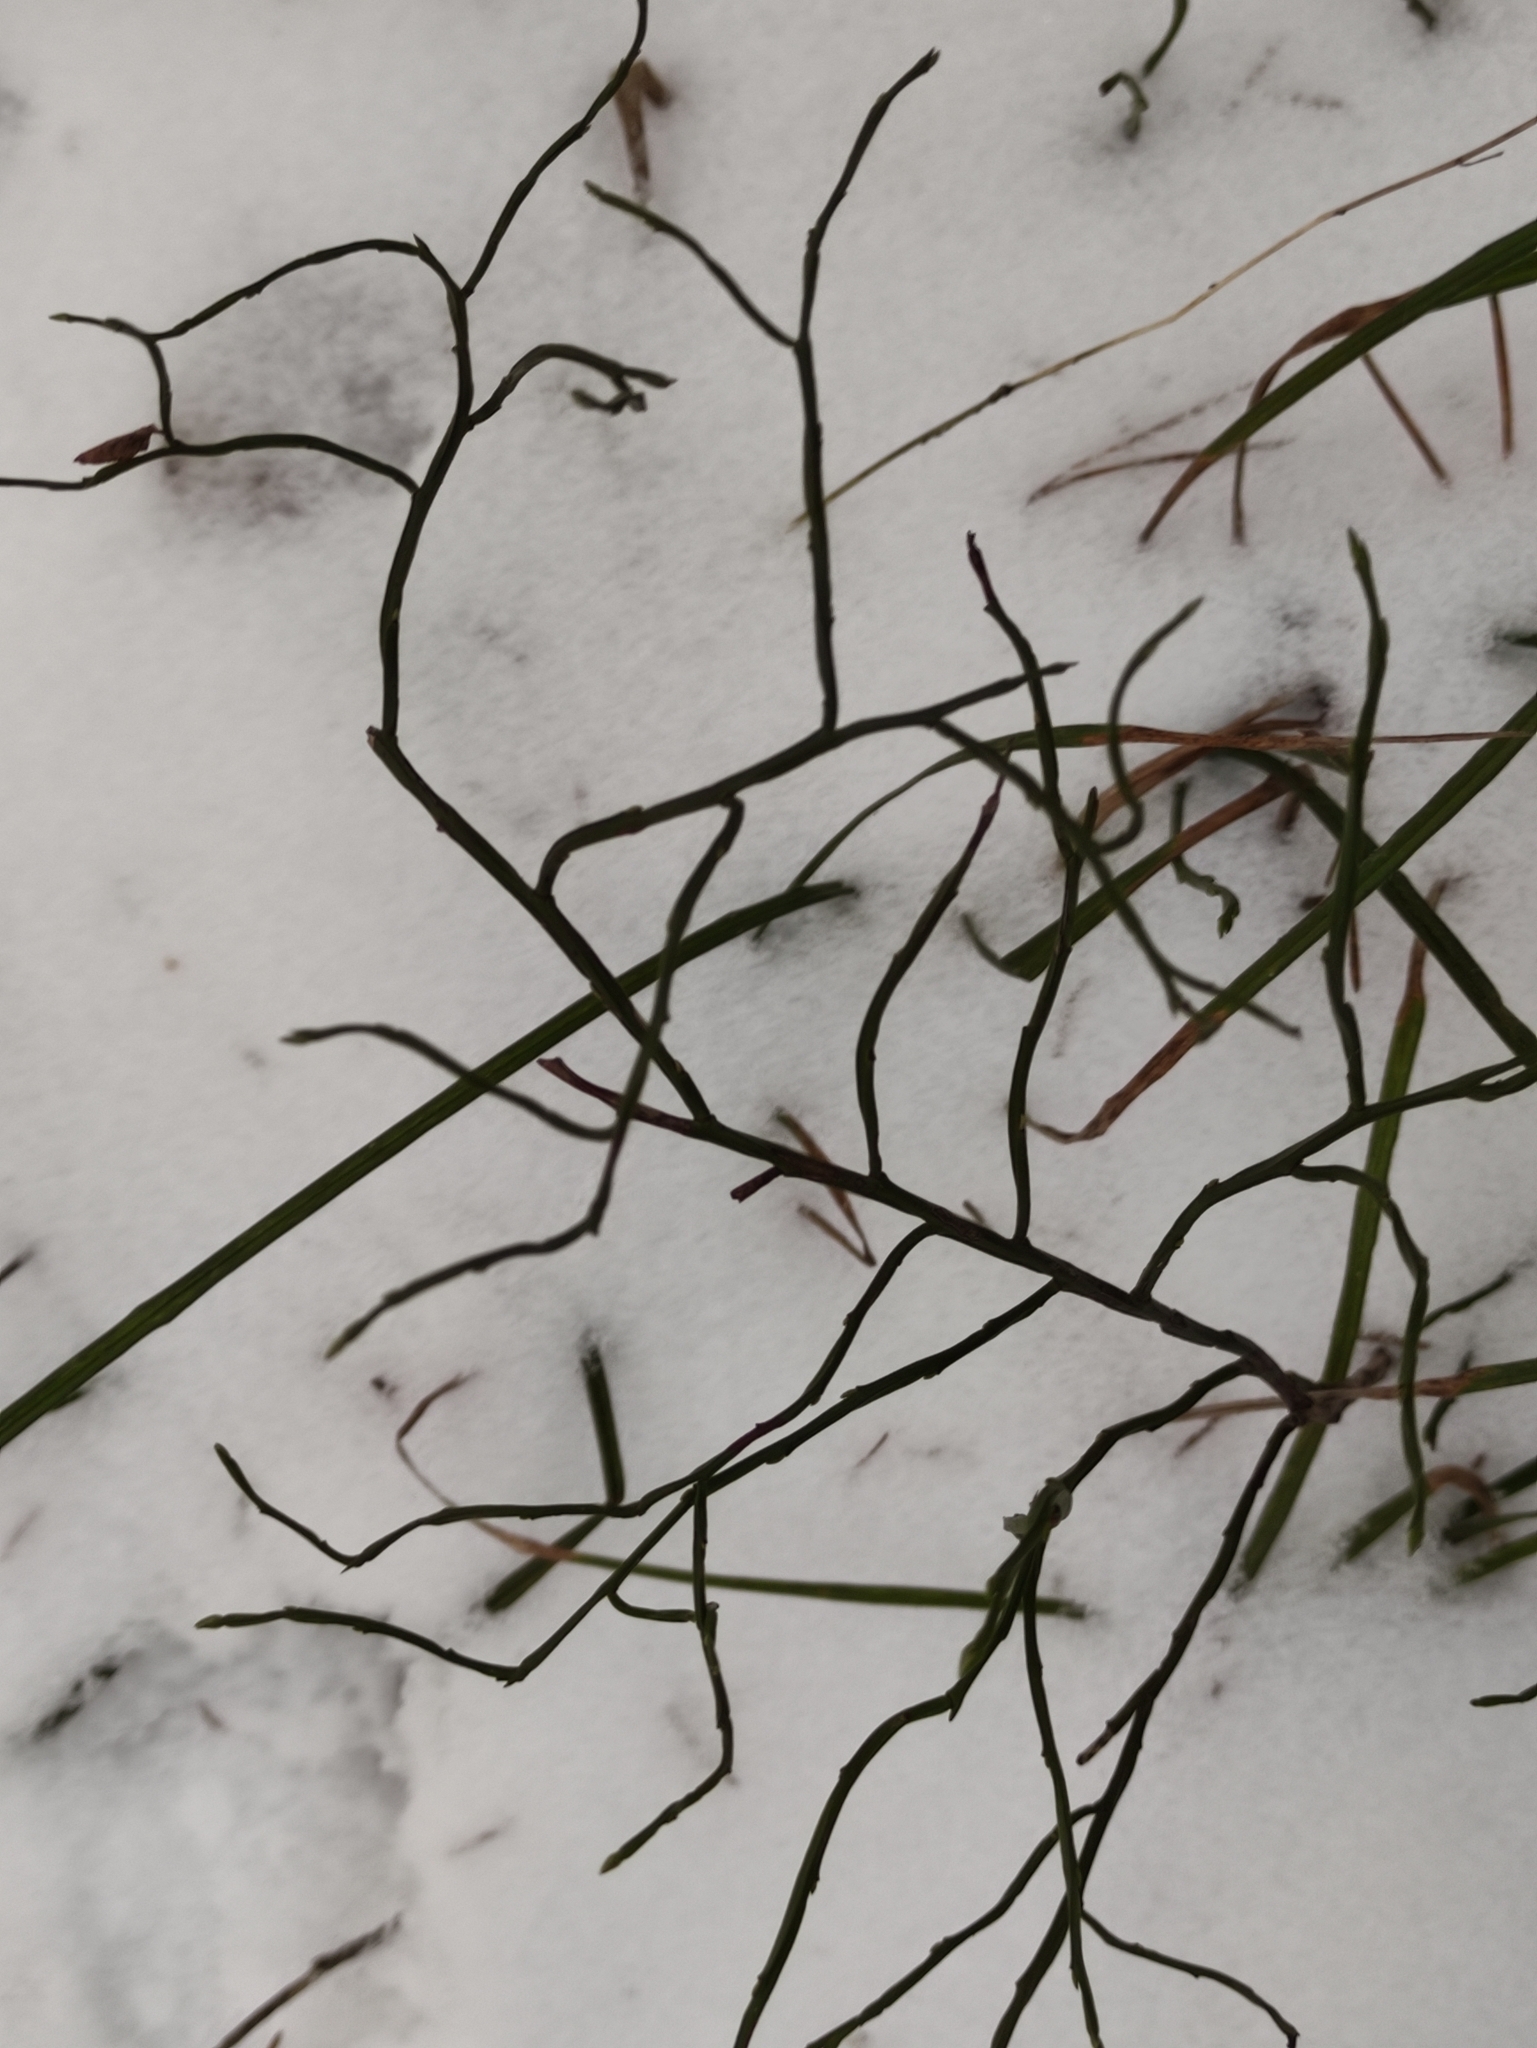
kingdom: Plantae
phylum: Tracheophyta
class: Magnoliopsida
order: Ericales
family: Ericaceae
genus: Vaccinium
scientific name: Vaccinium myrtillus
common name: Bilberry
